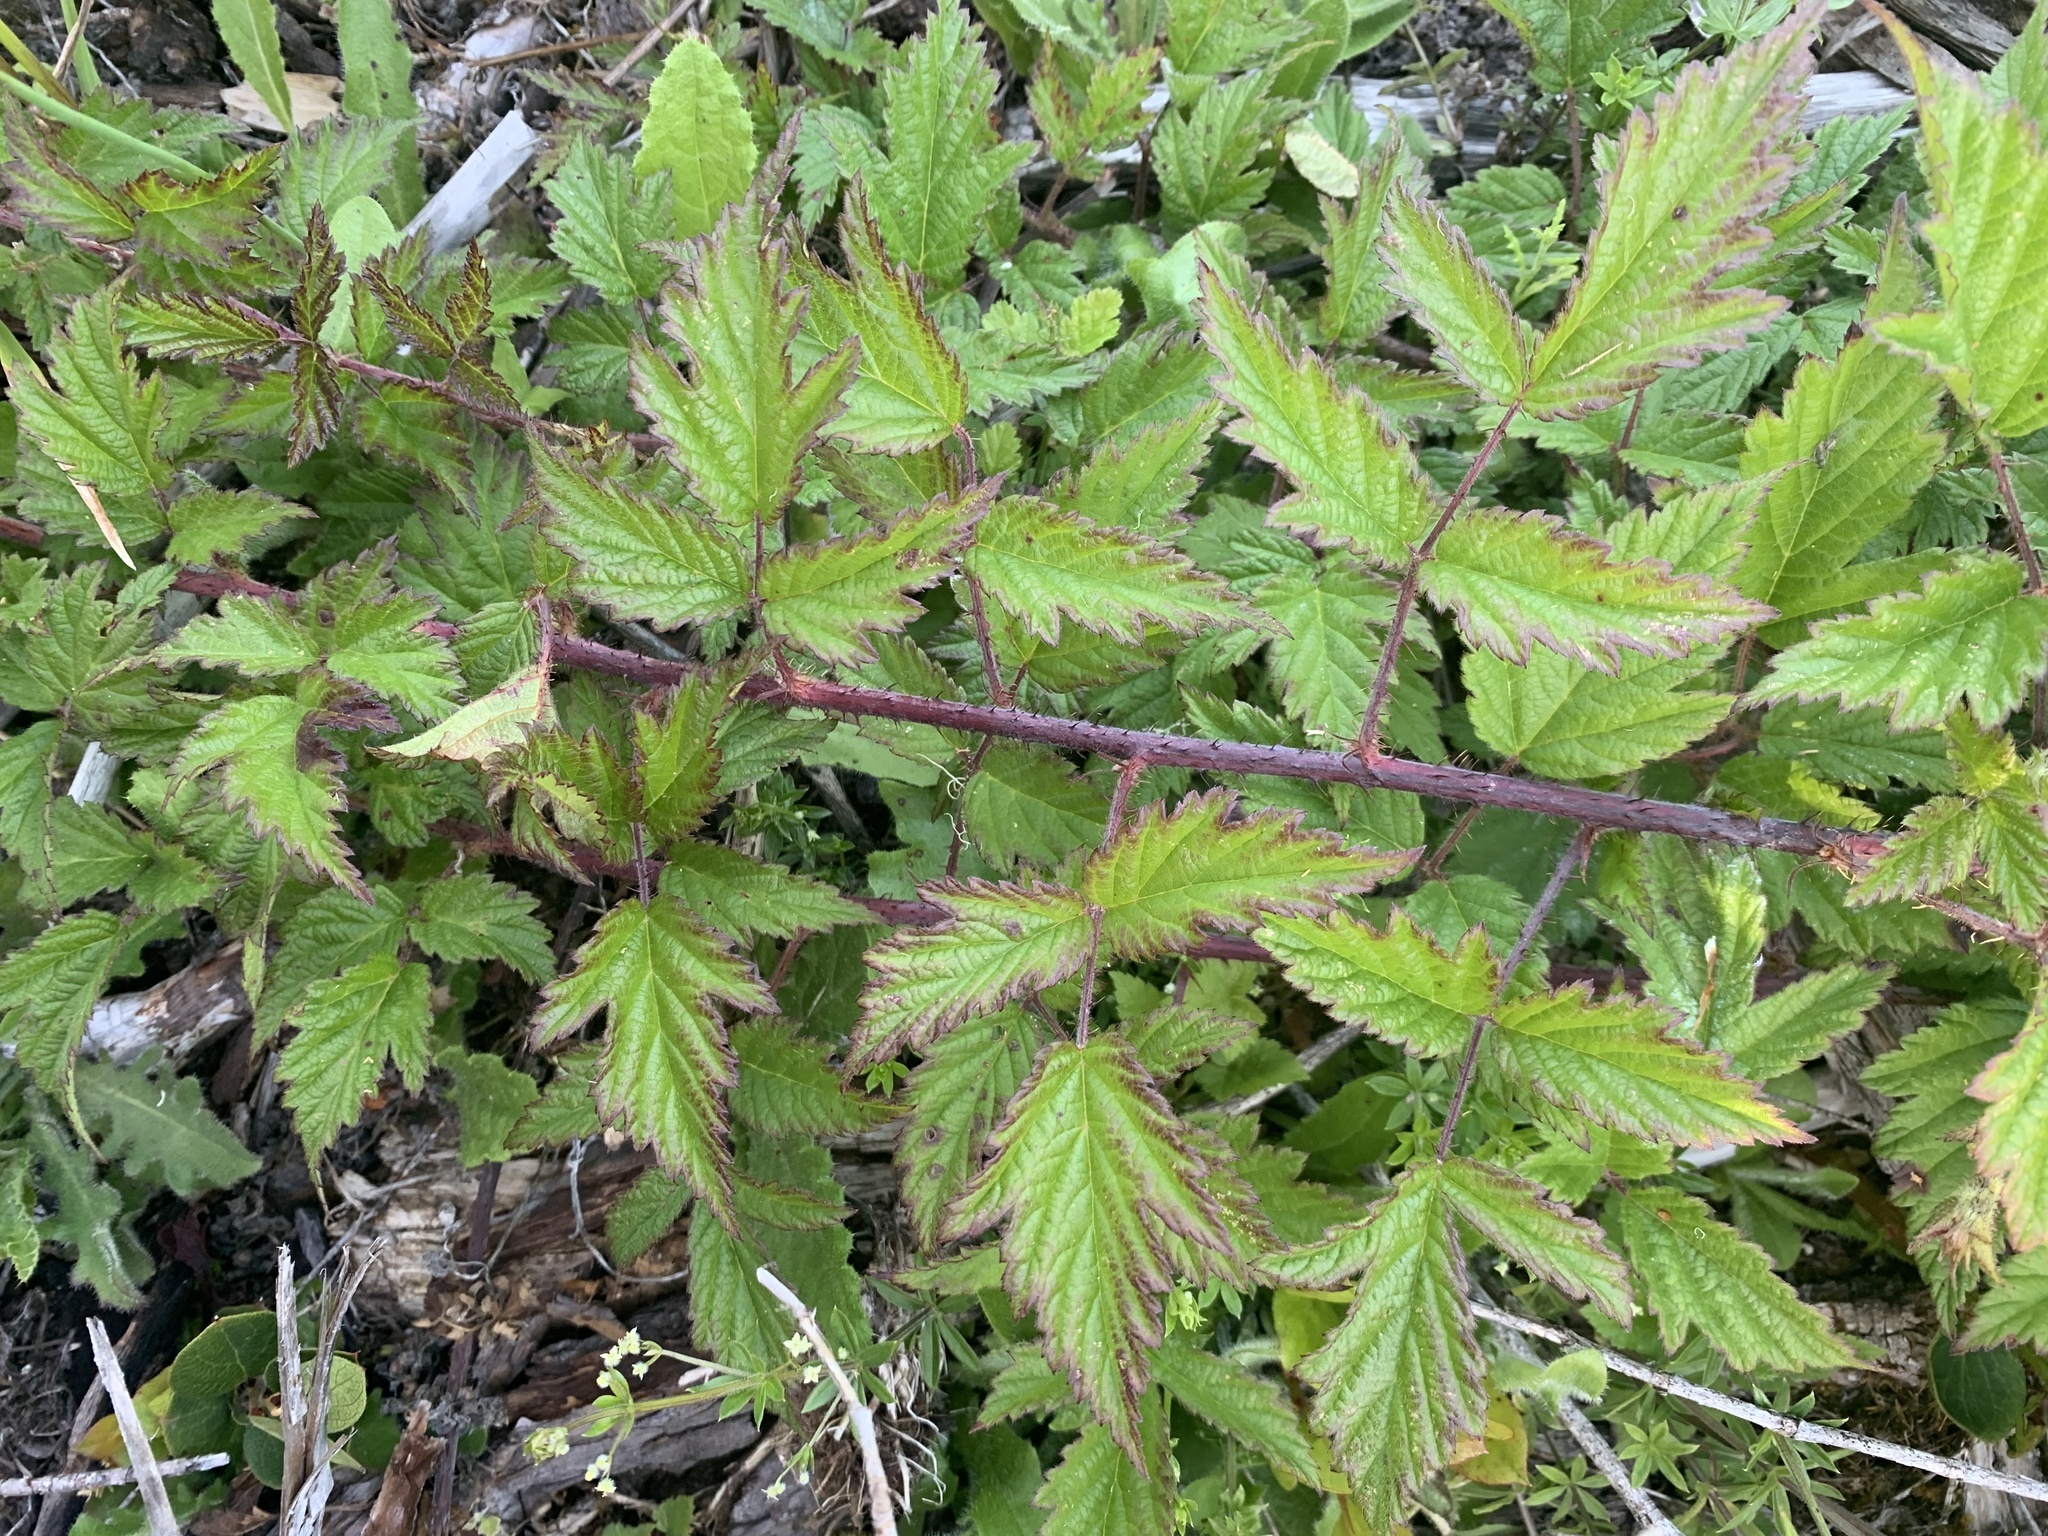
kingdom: Plantae
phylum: Tracheophyta
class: Magnoliopsida
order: Rosales
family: Rosaceae
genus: Rubus
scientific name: Rubus ursinus
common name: Pacific blackberry
